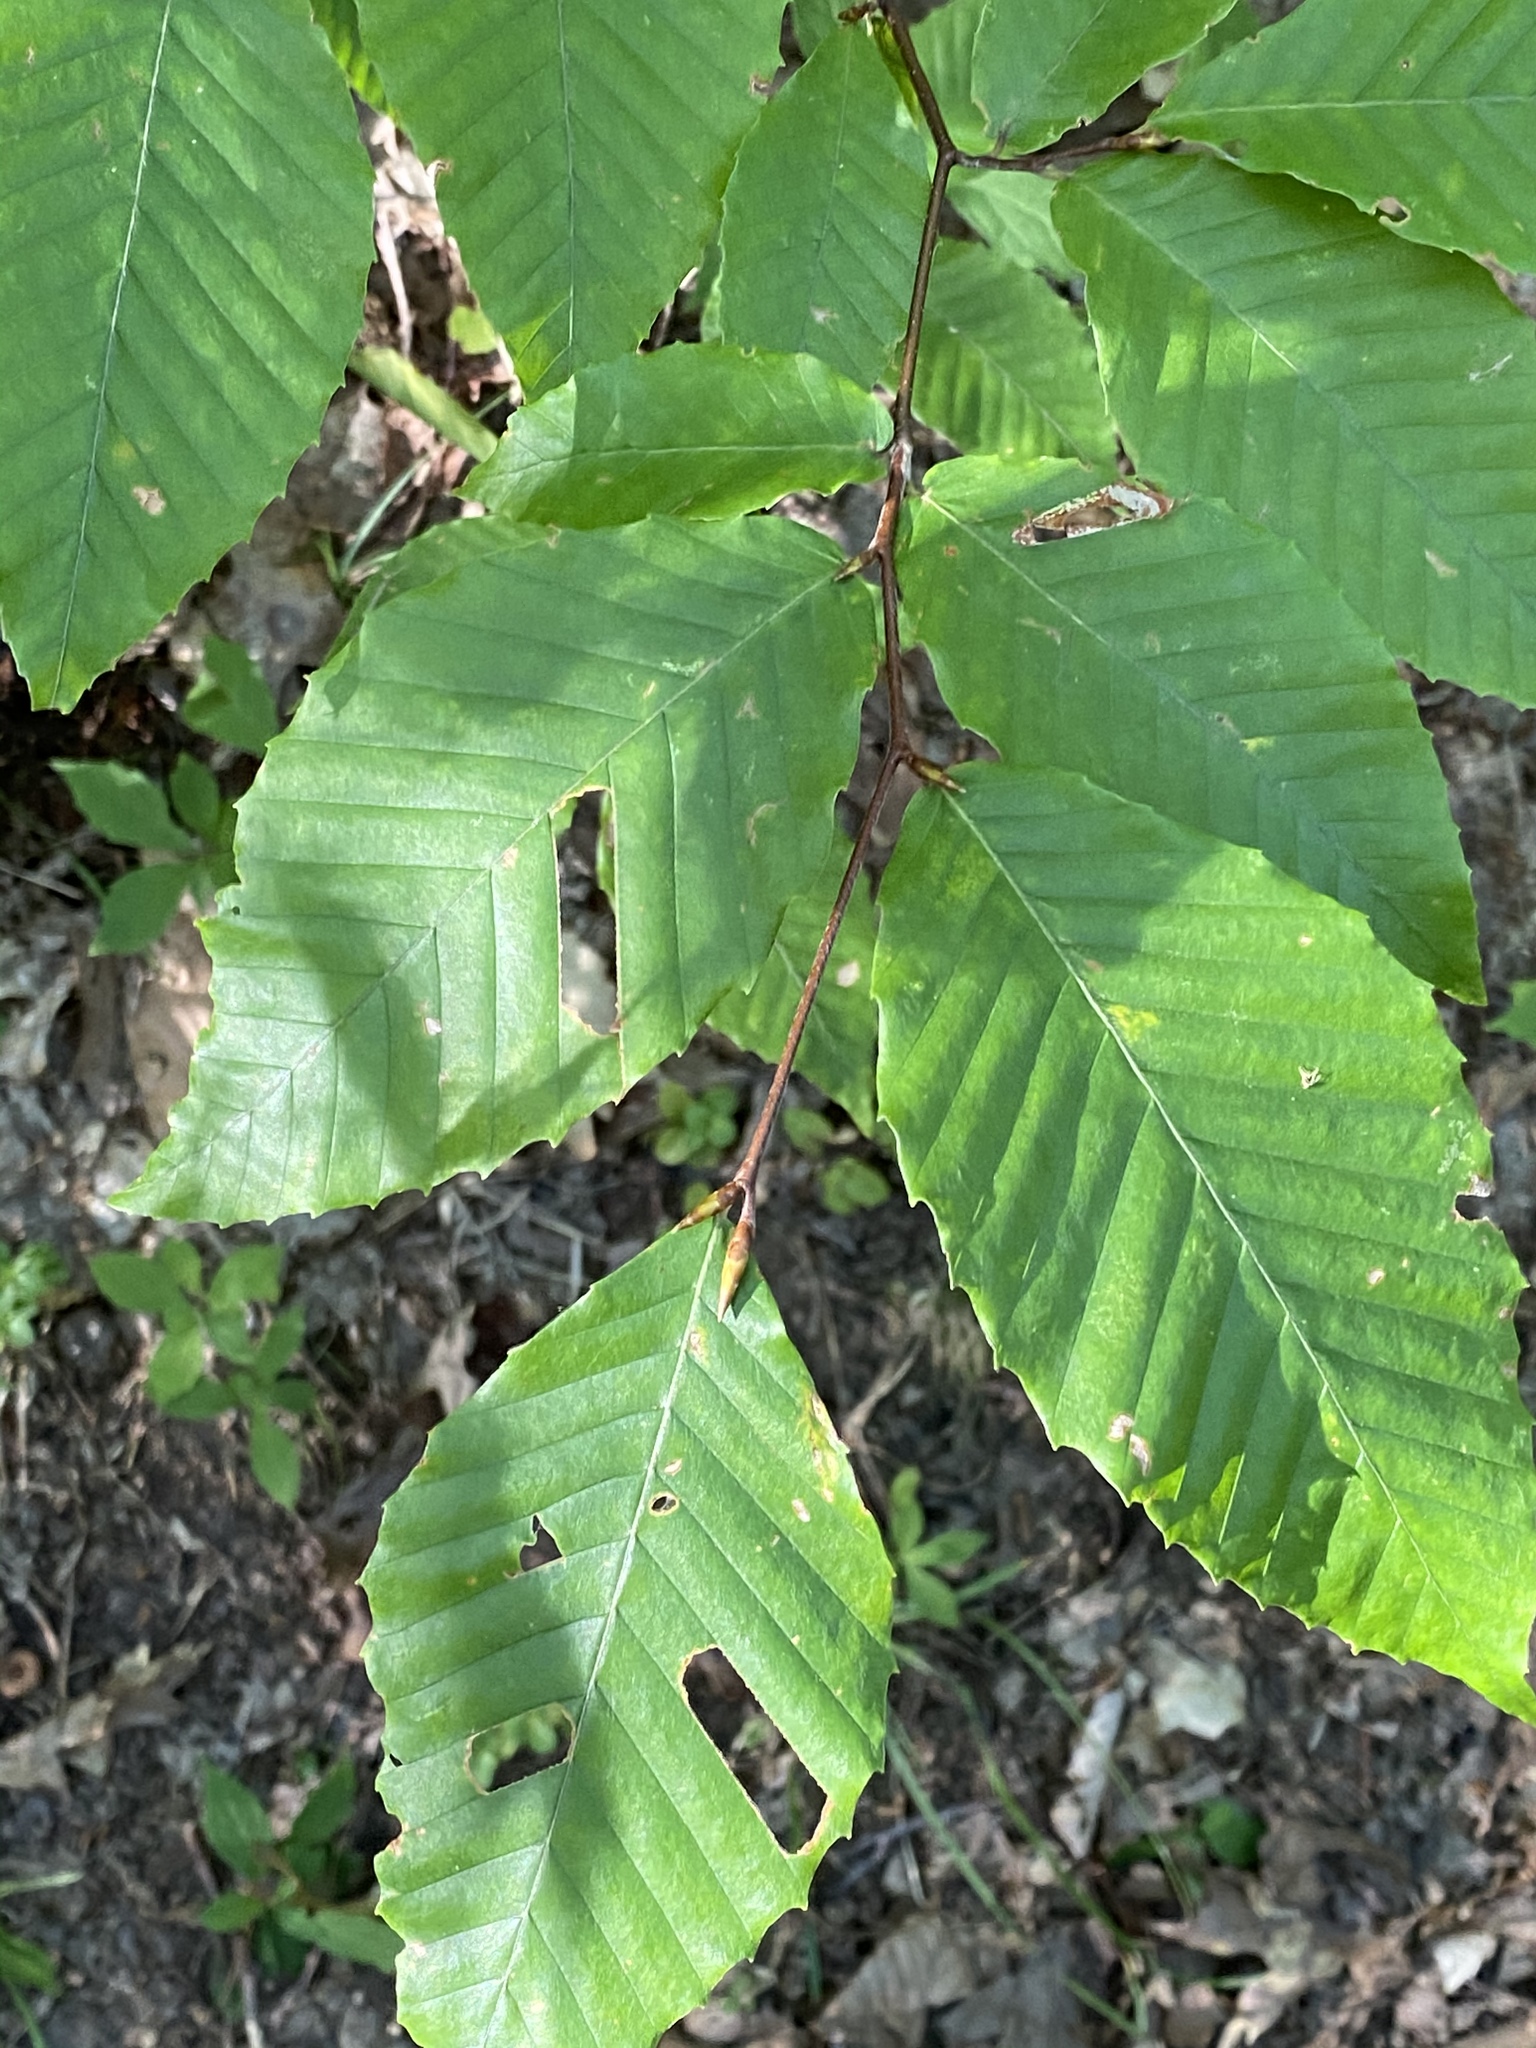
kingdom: Plantae
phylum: Tracheophyta
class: Magnoliopsida
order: Fagales
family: Fagaceae
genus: Fagus
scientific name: Fagus grandifolia
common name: American beech
